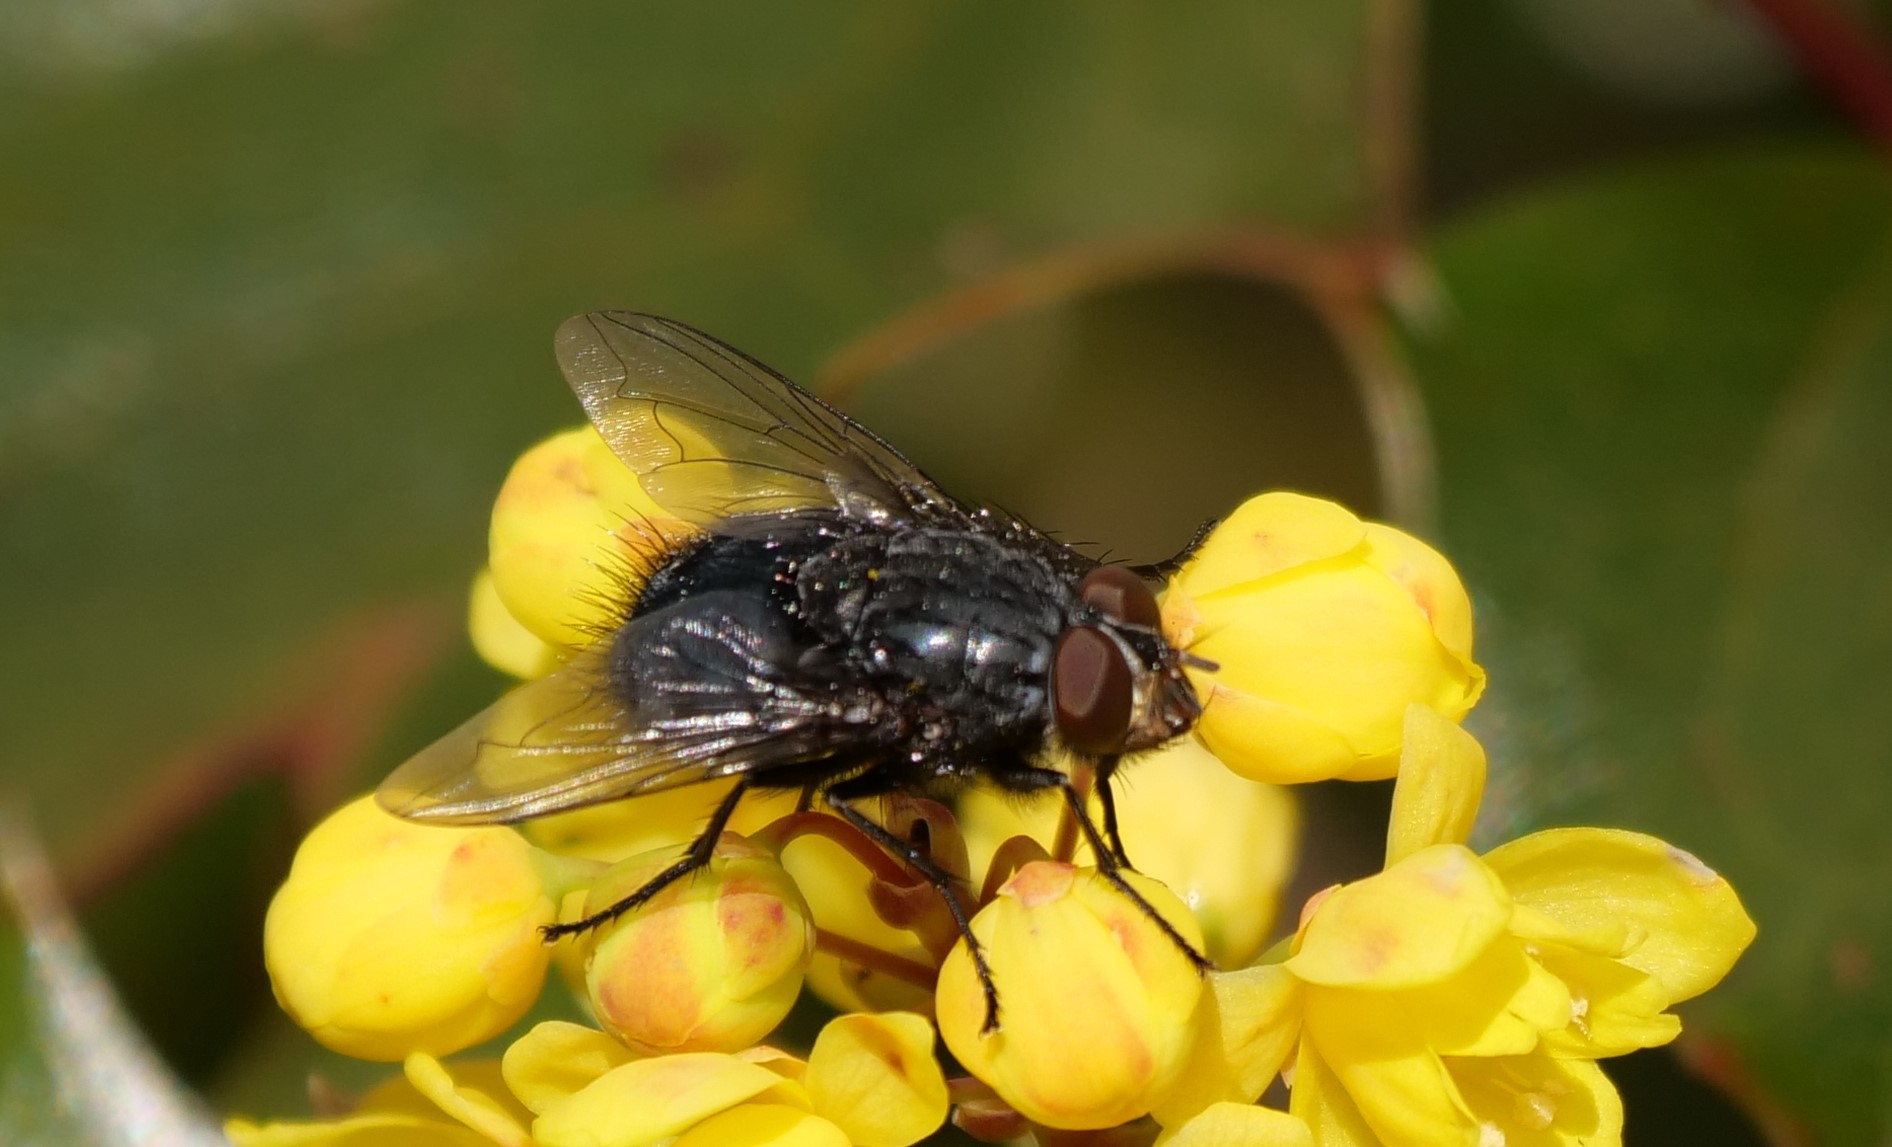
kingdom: Animalia
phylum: Arthropoda
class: Insecta
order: Diptera
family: Calliphoridae
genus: Calliphora
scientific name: Calliphora vicina
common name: Common blow flie
